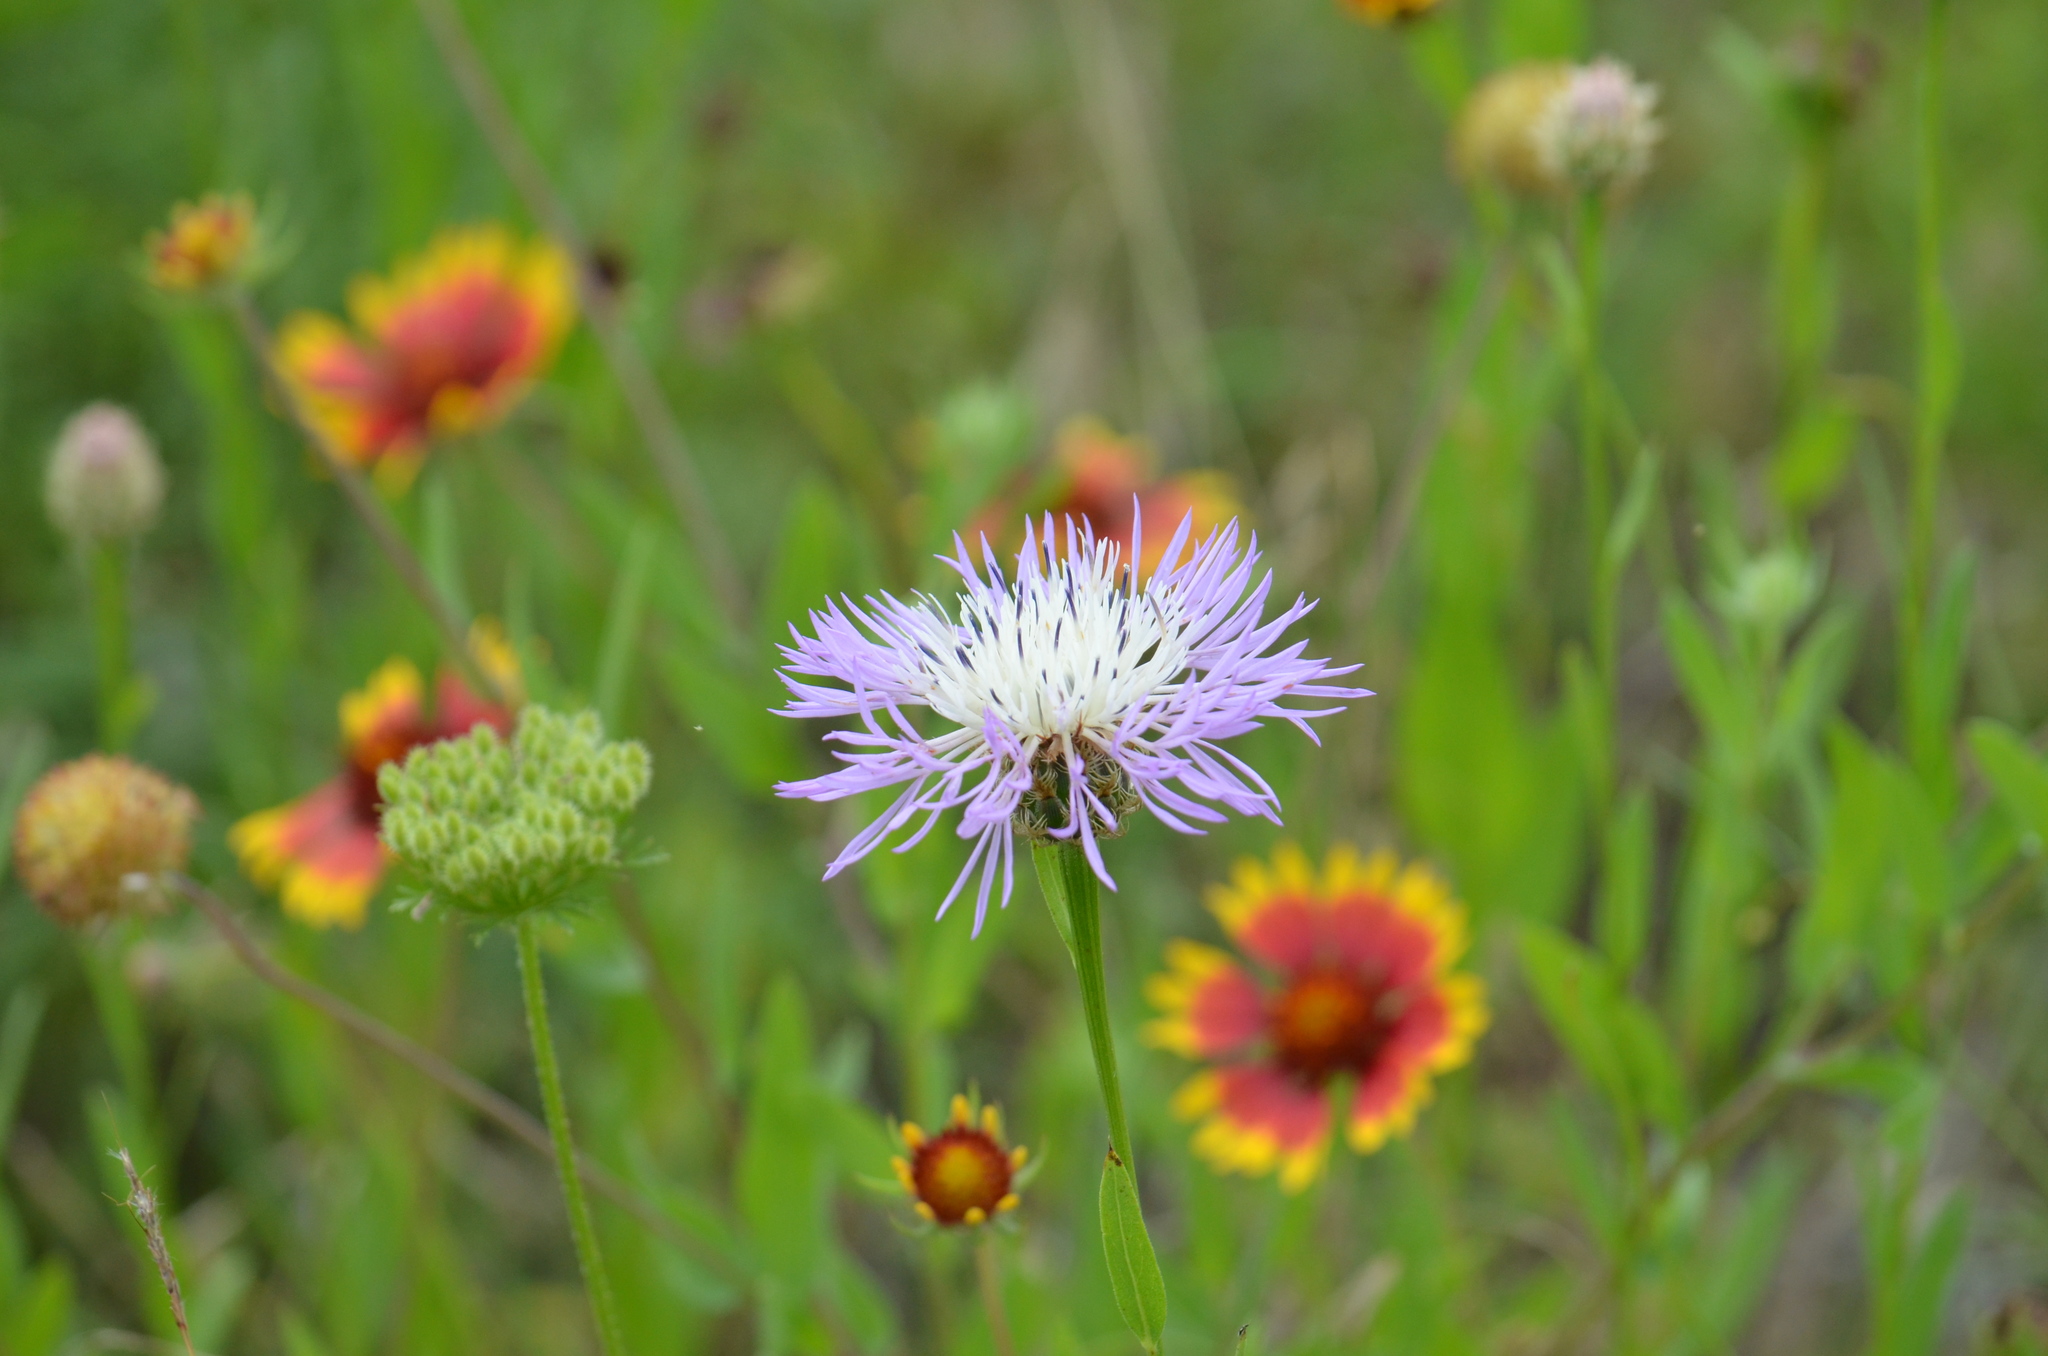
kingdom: Plantae
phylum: Tracheophyta
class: Magnoliopsida
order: Asterales
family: Asteraceae
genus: Plectocephalus
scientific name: Plectocephalus americanus
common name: American basket-flower
